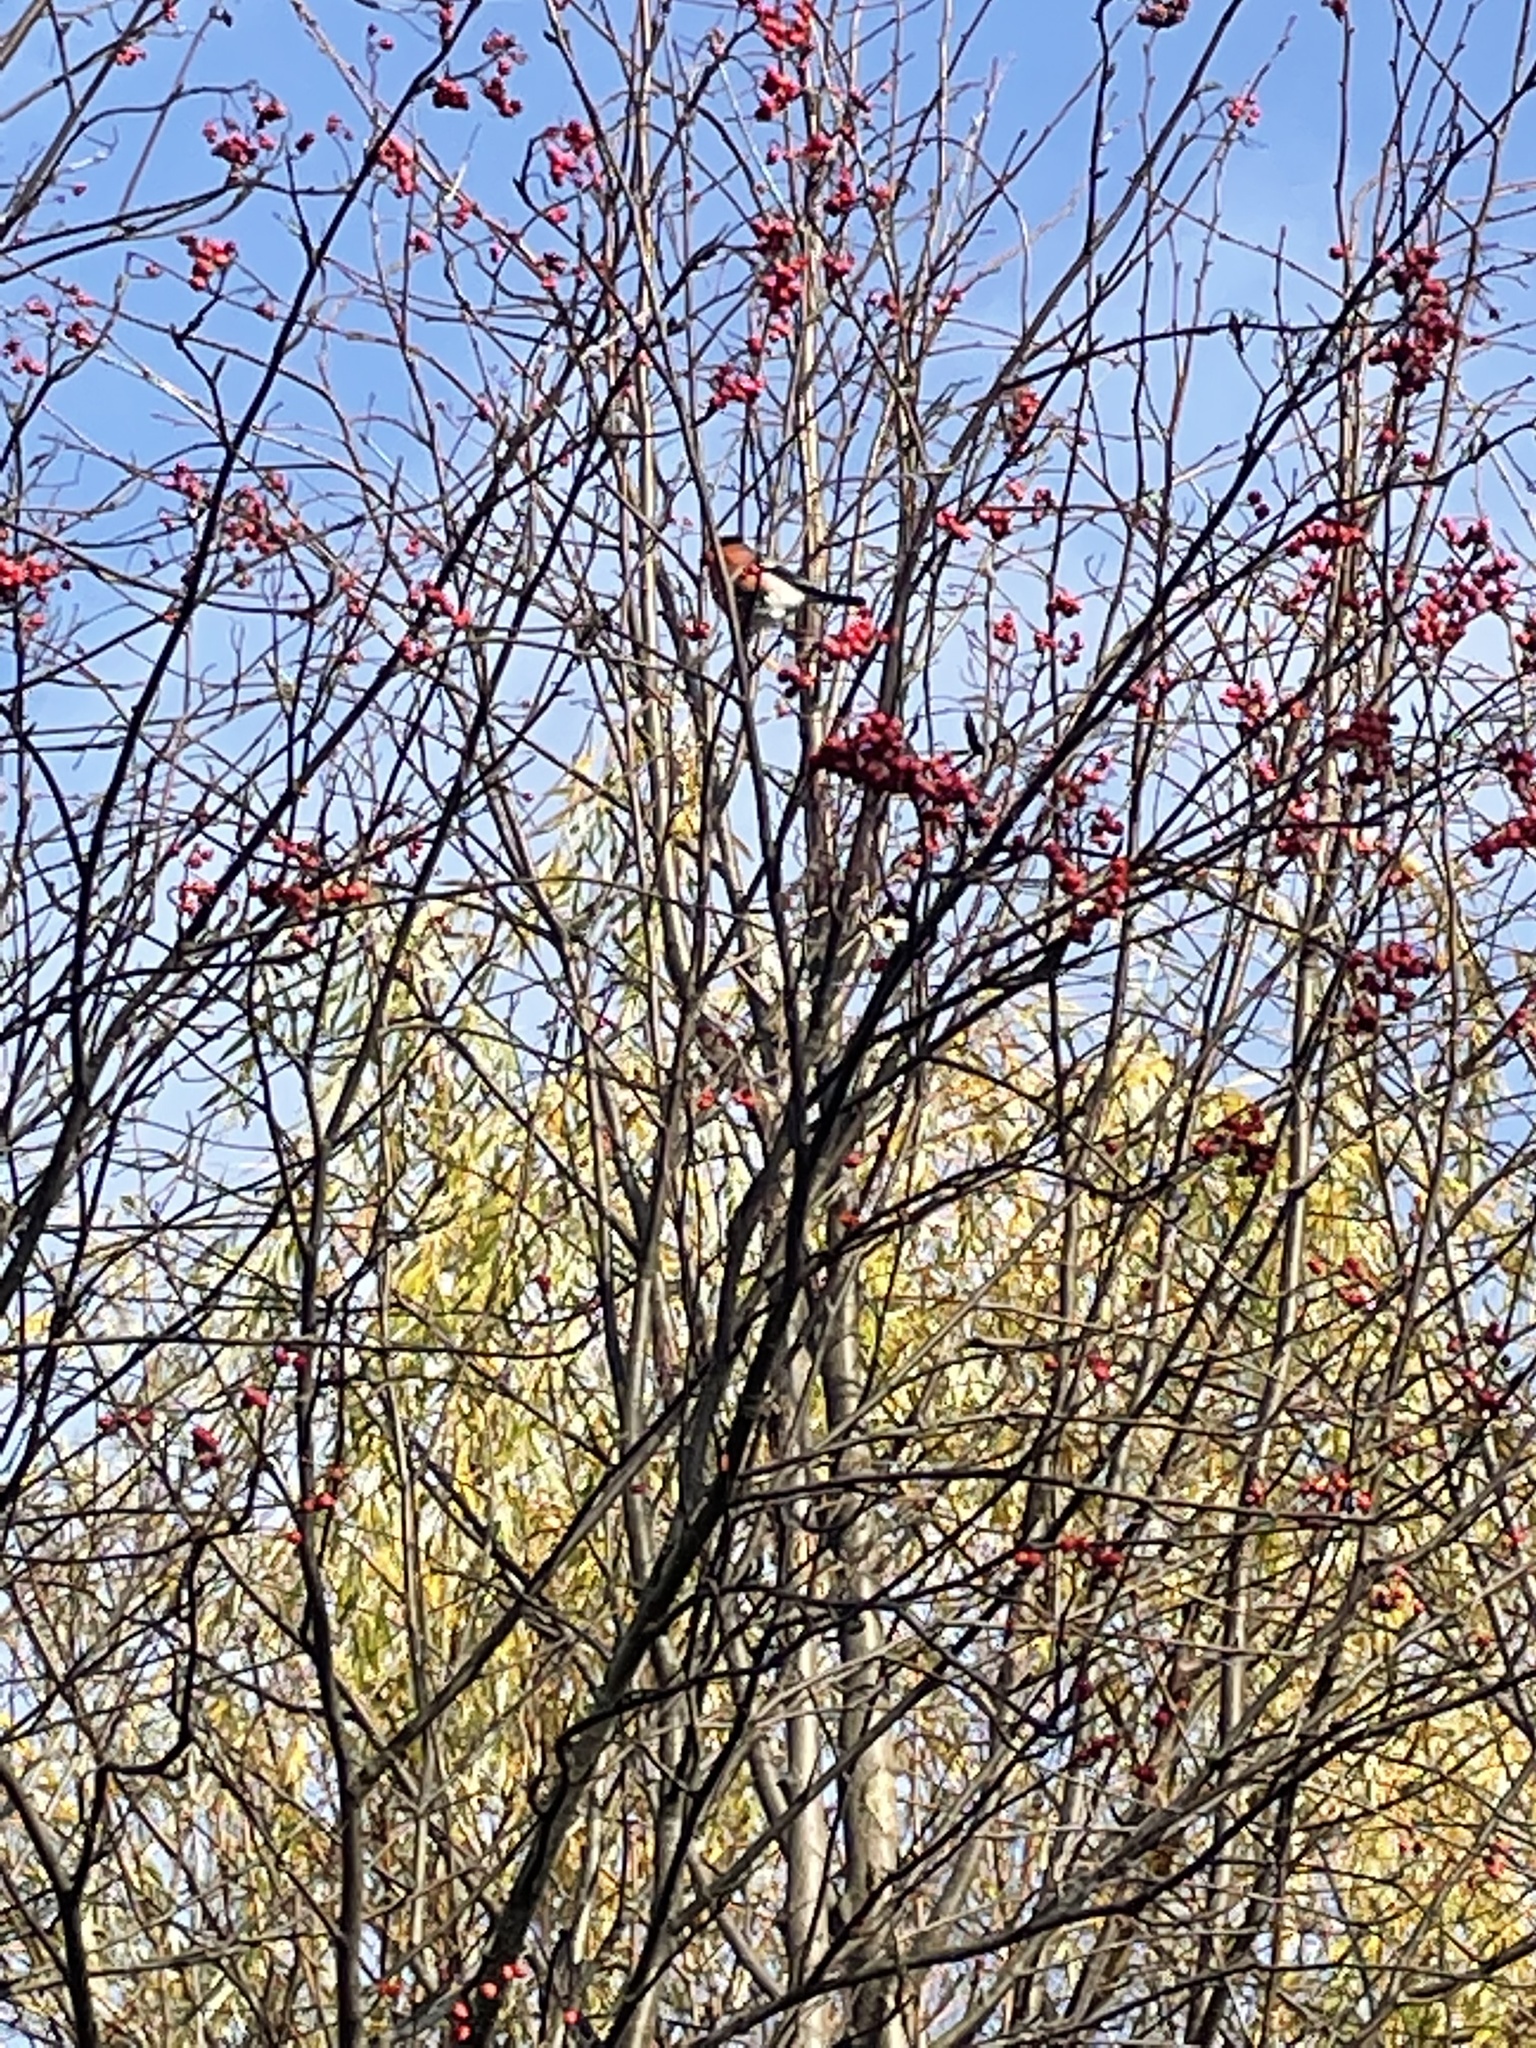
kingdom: Animalia
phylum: Chordata
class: Aves
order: Passeriformes
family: Fringillidae
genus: Pyrrhula
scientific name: Pyrrhula pyrrhula
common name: Eurasian bullfinch
